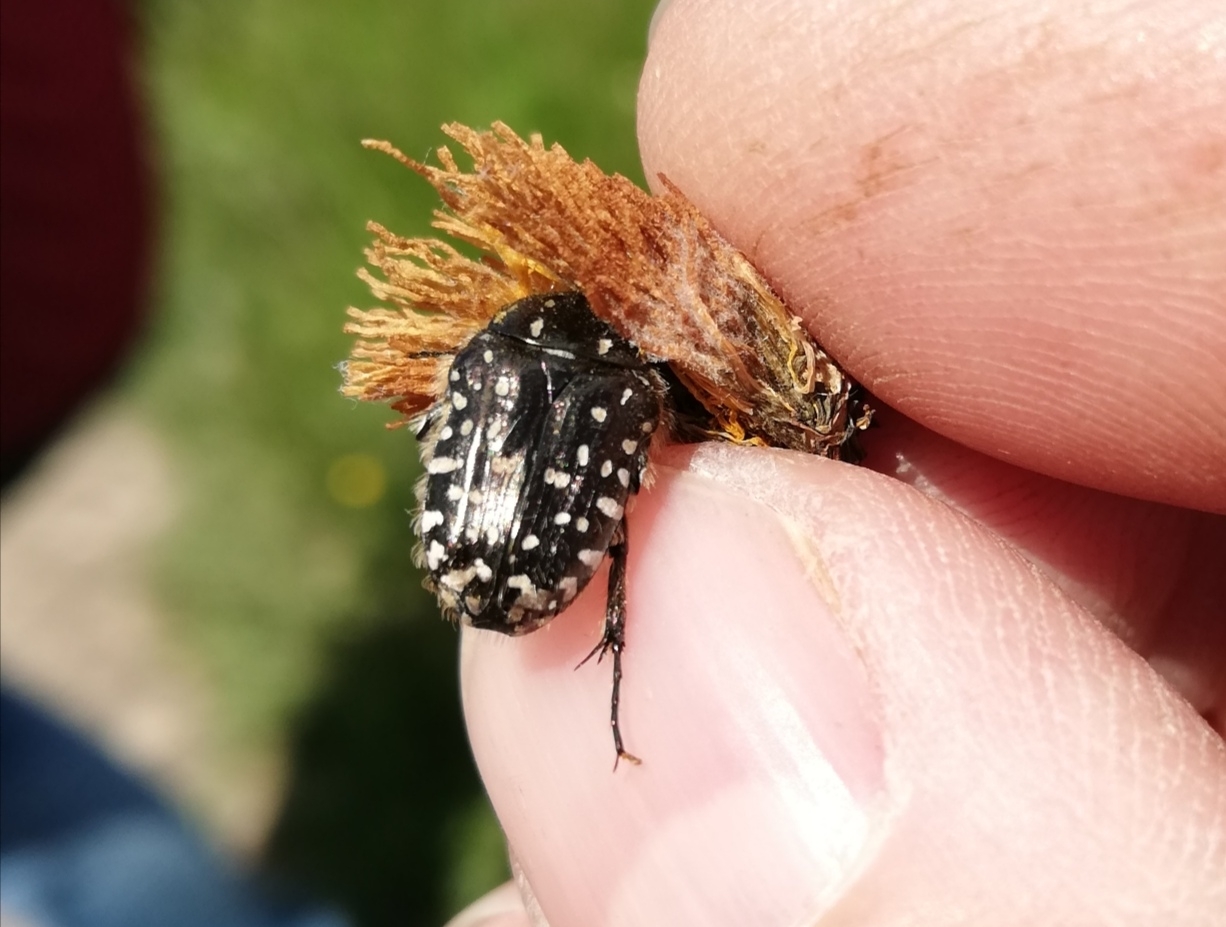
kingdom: Animalia
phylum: Arthropoda
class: Insecta
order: Coleoptera
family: Scarabaeidae
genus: Oxythyrea
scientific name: Oxythyrea funesta
